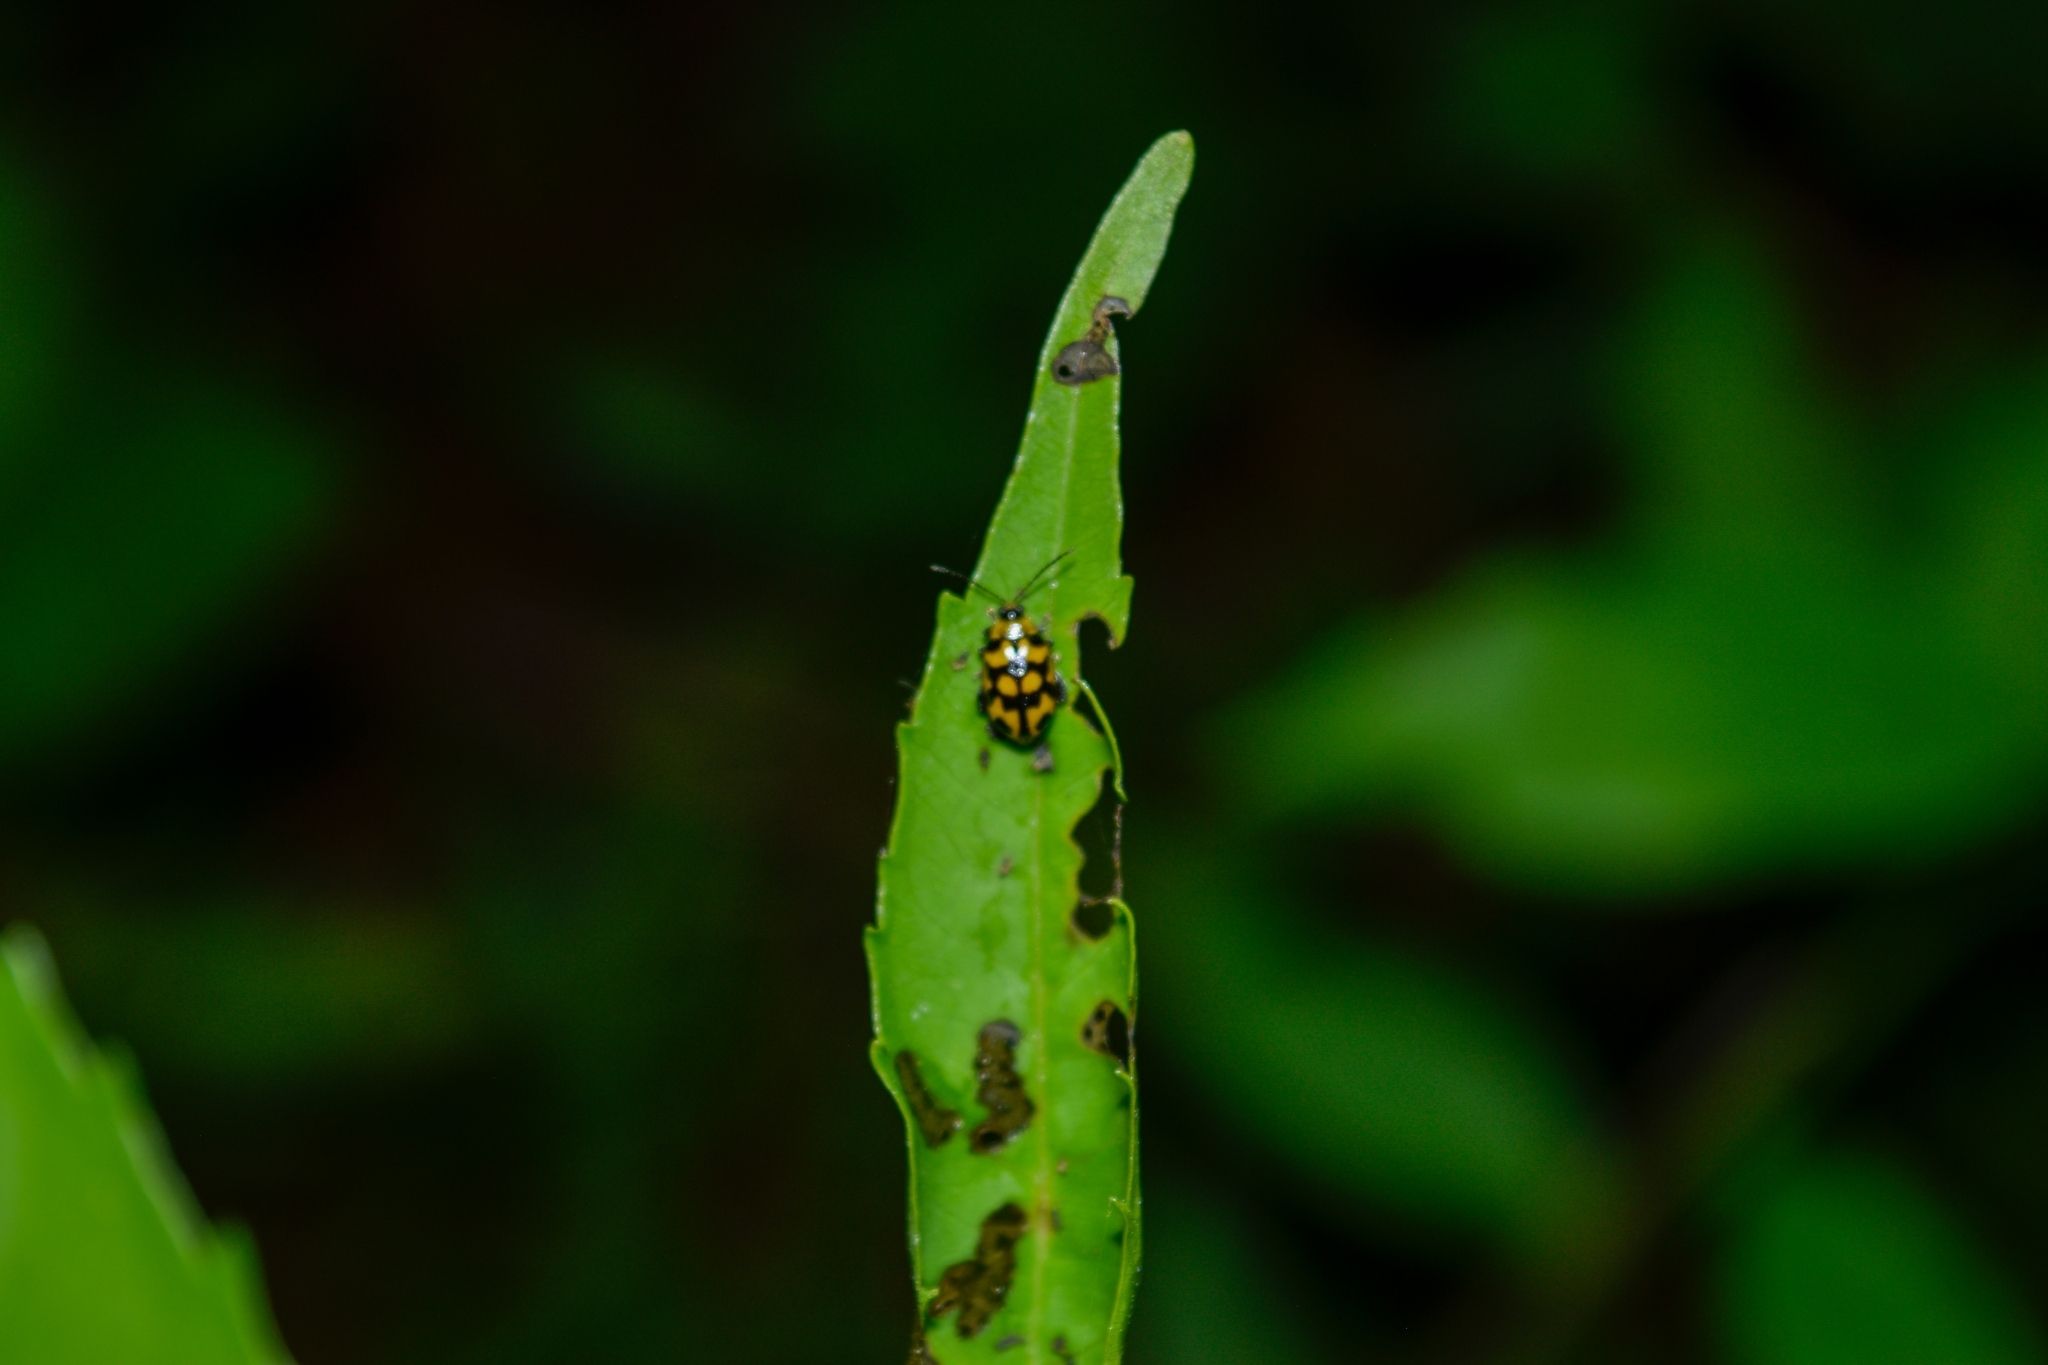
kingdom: Animalia
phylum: Arthropoda
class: Insecta
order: Coleoptera
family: Chrysomelidae
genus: Capraita
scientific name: Capraita
